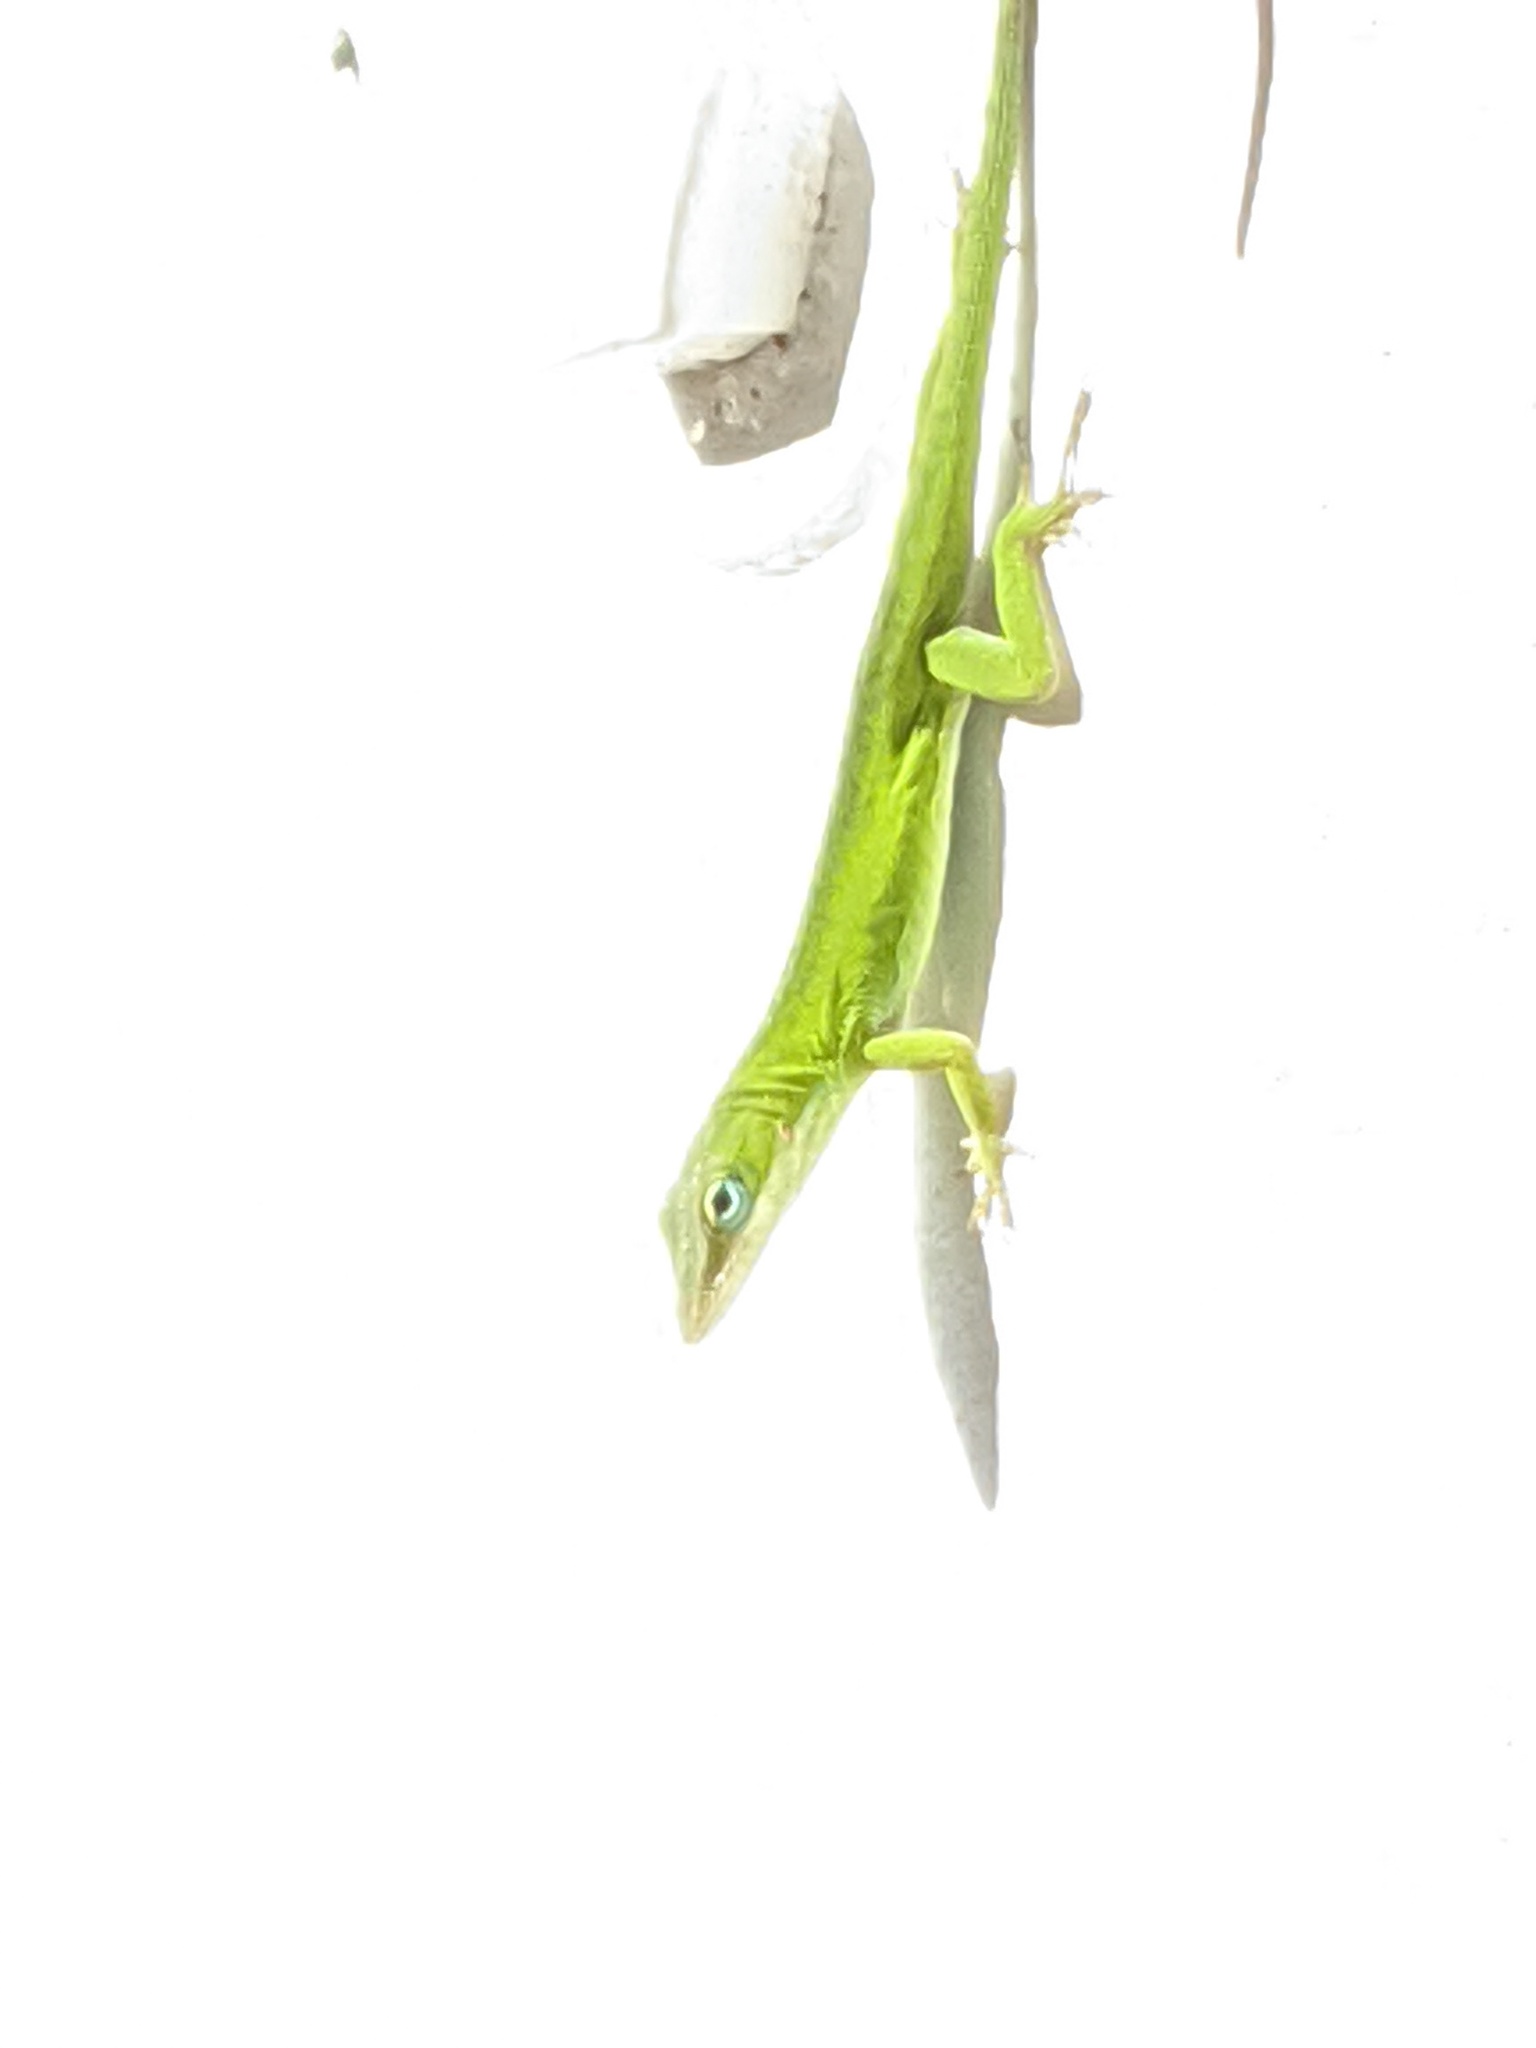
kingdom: Animalia
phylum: Chordata
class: Squamata
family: Dactyloidae
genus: Anolis
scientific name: Anolis carolinensis
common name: Green anole
